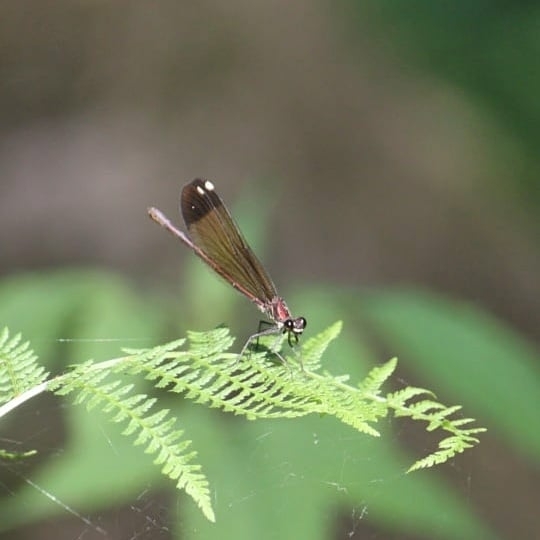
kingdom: Animalia
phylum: Arthropoda
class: Insecta
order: Odonata
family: Calopterygidae
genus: Calopteryx
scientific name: Calopteryx haemorrhoidalis
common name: Copper demoiselle
